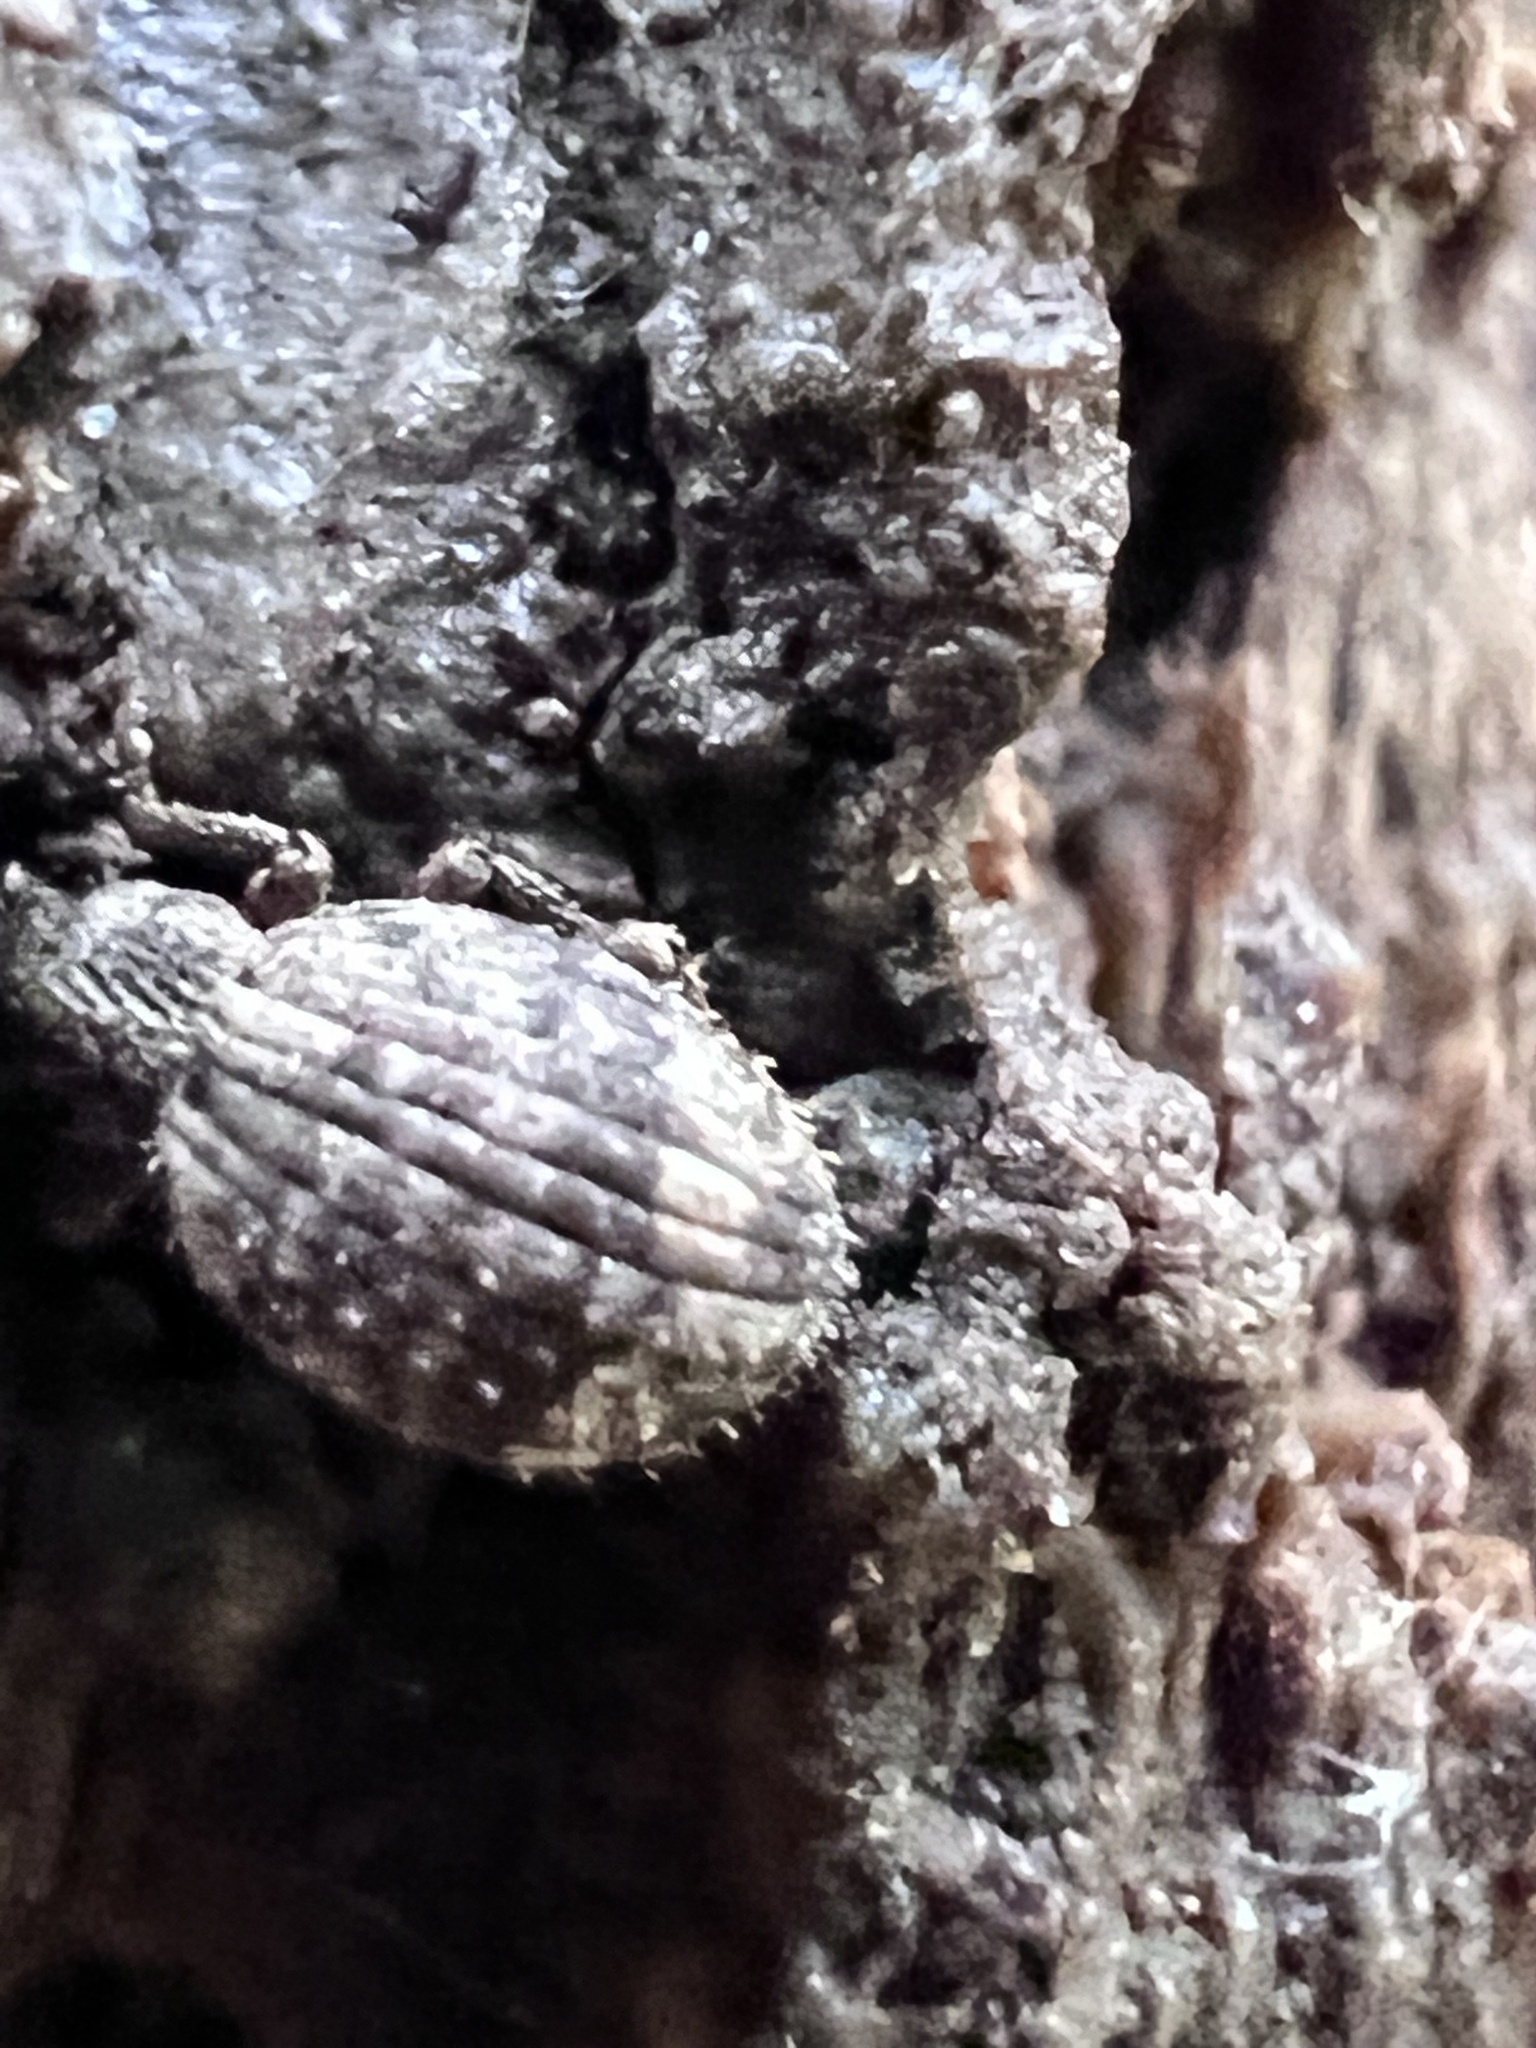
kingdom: Animalia
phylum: Arthropoda
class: Insecta
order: Coleoptera
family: Curculionidae
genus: Myosides
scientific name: Myosides seriehispidus
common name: Broadnosed weevil
